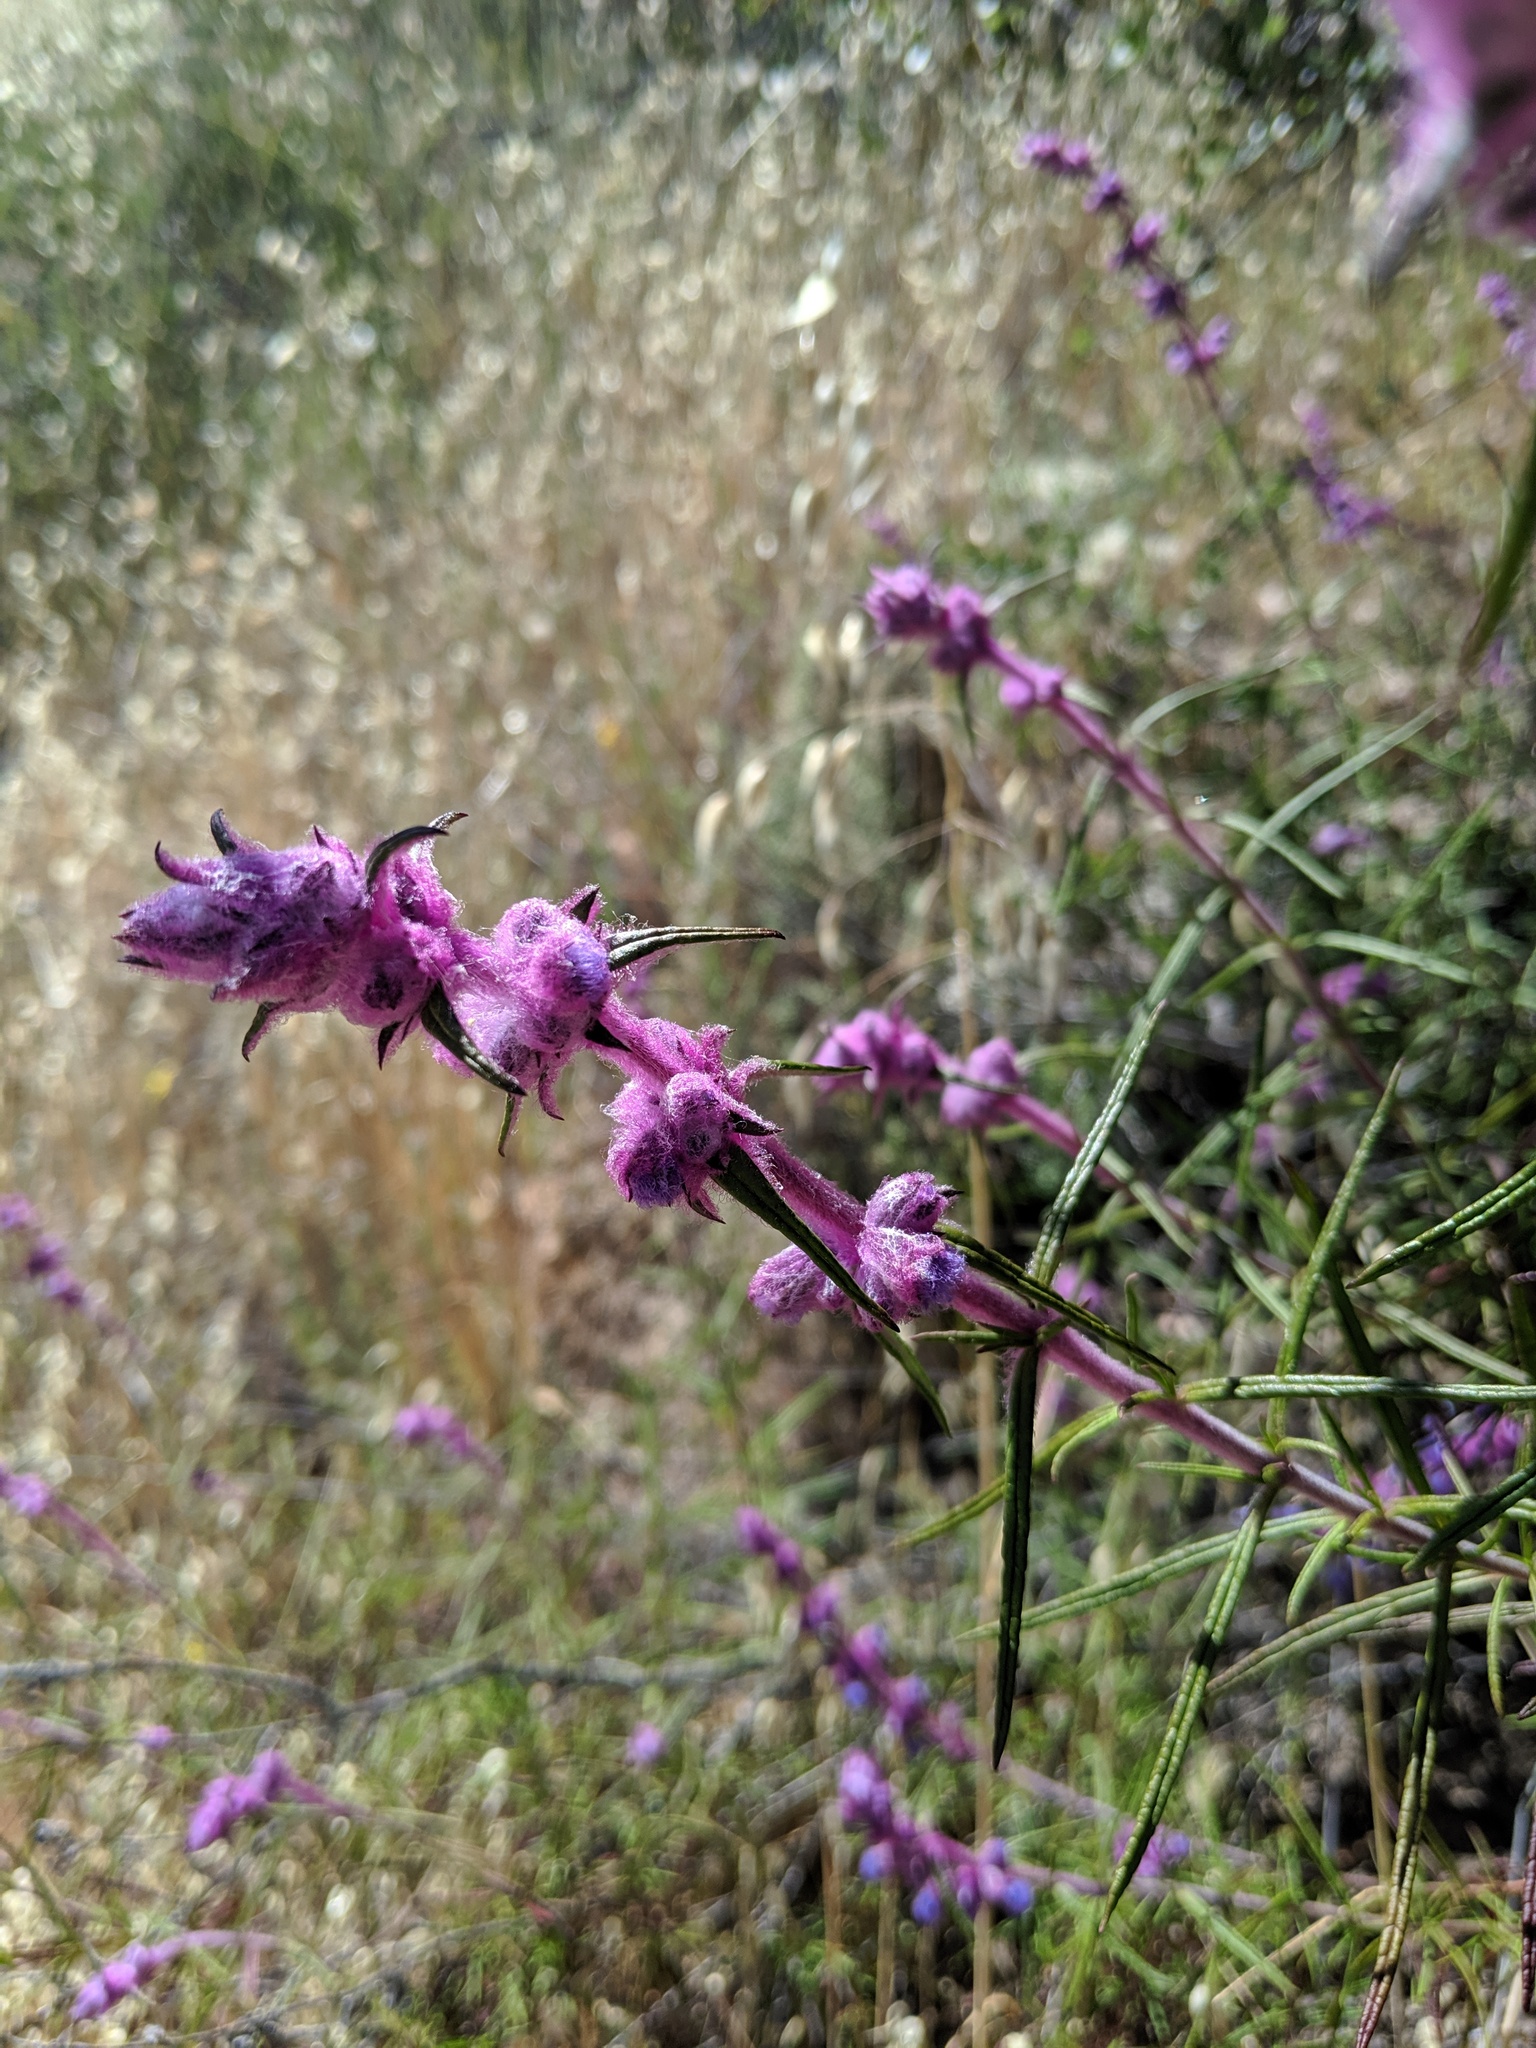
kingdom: Plantae
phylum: Tracheophyta
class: Magnoliopsida
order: Lamiales
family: Lamiaceae
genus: Trichostema
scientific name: Trichostema lanatum
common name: Woolly bluecurls
